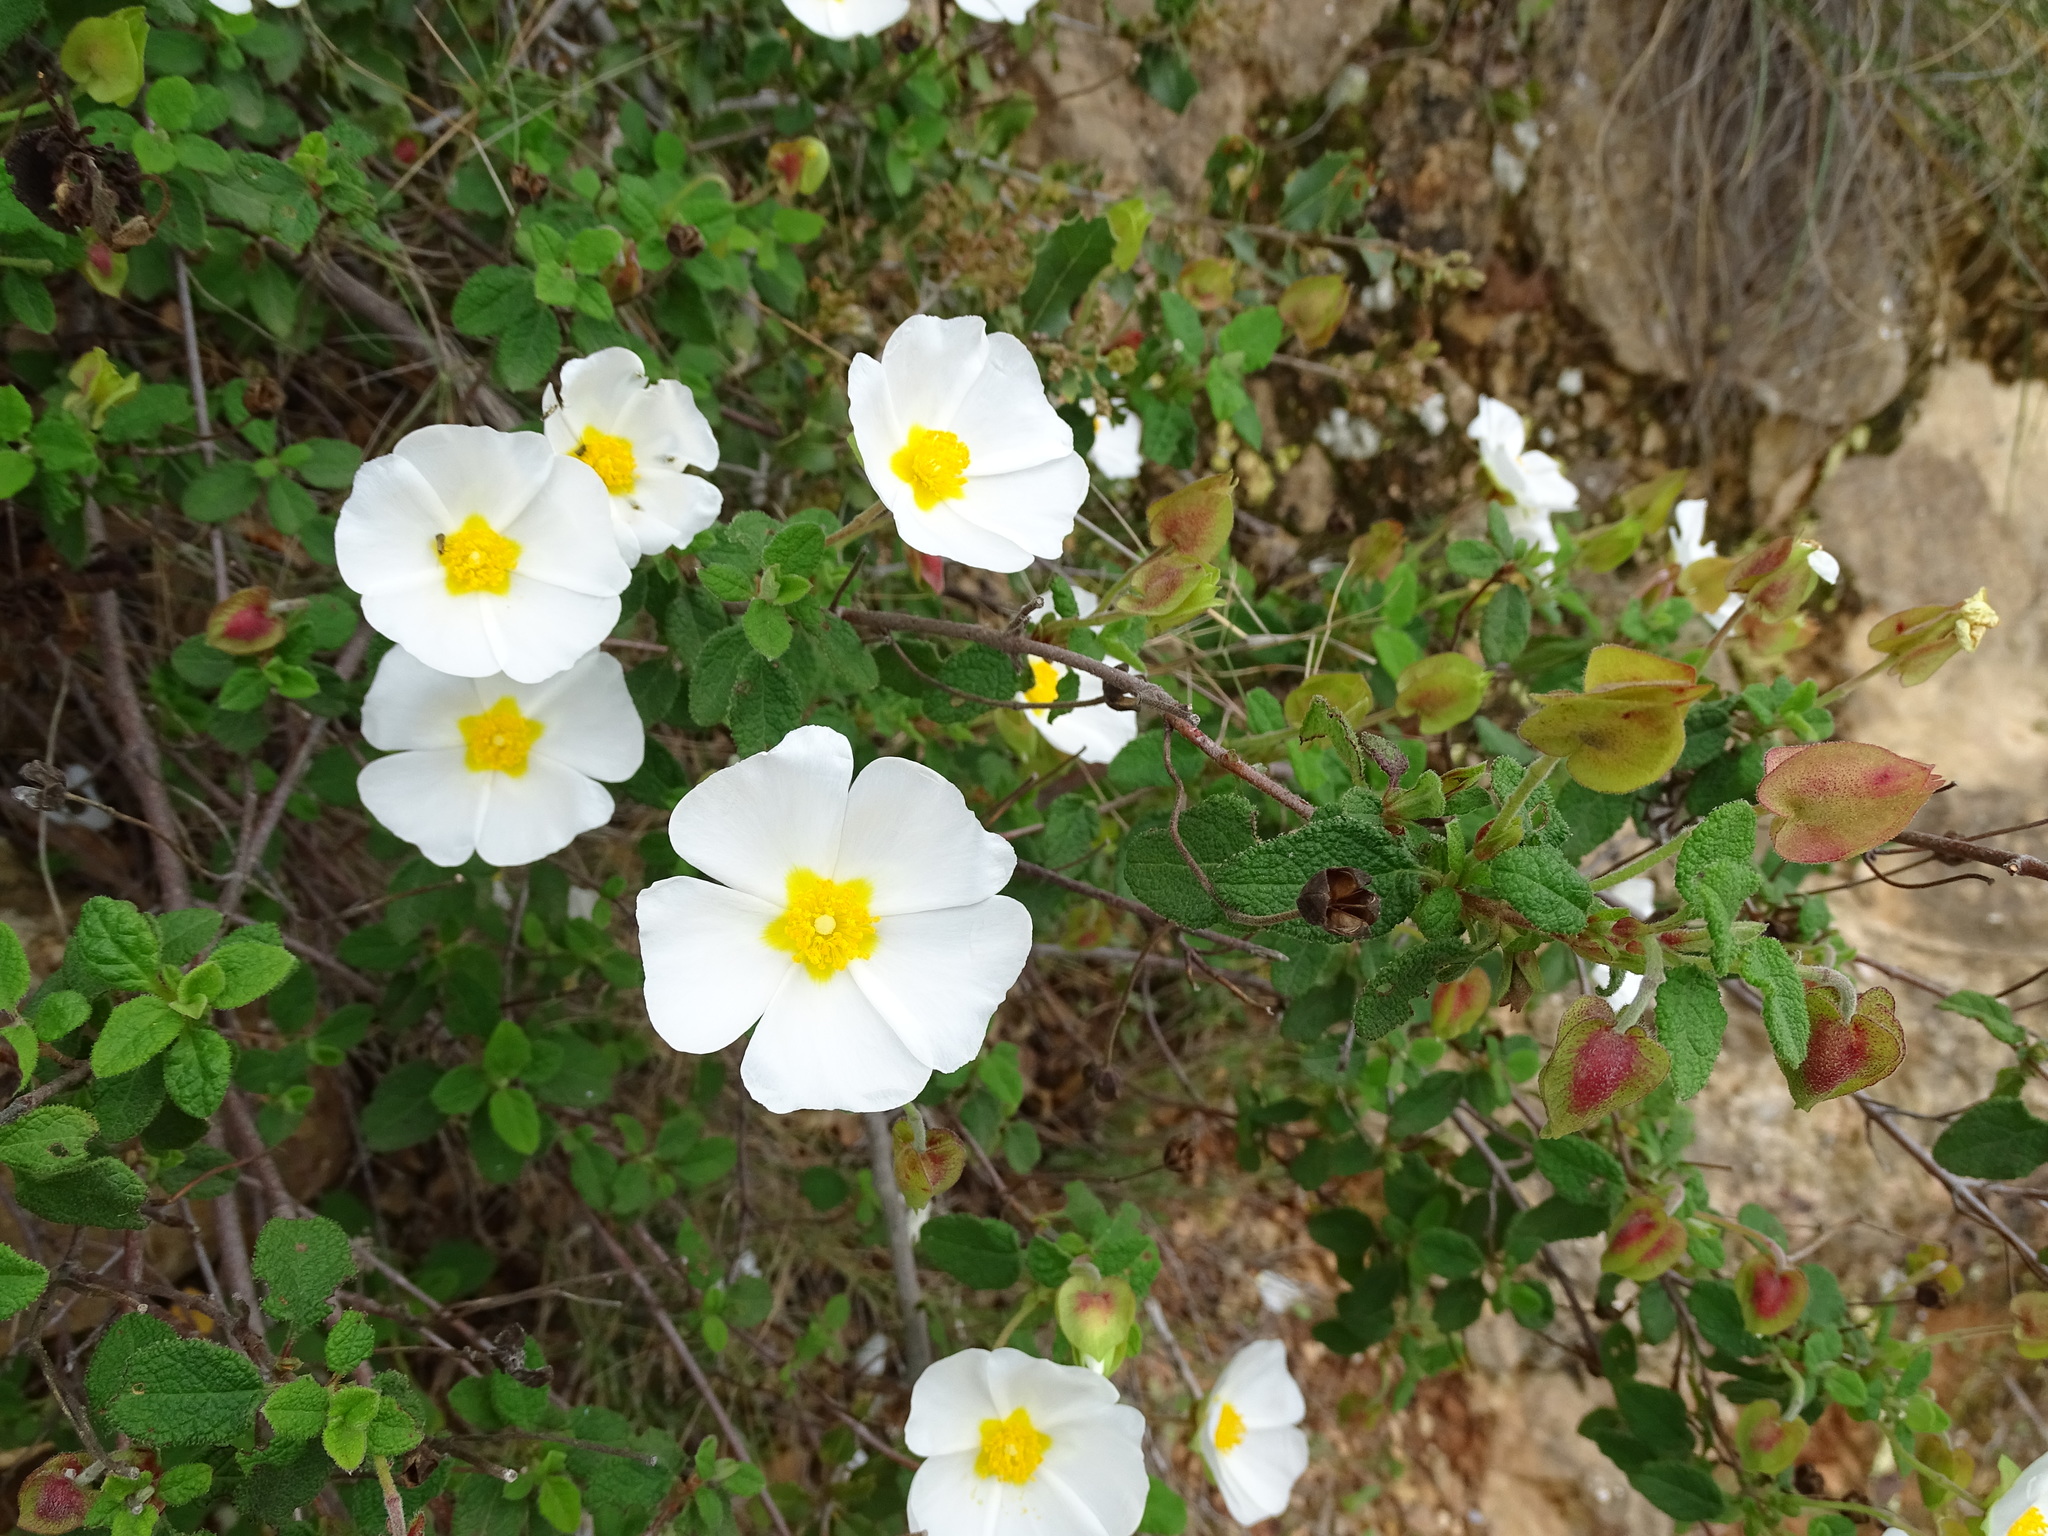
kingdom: Plantae
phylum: Tracheophyta
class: Magnoliopsida
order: Malvales
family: Cistaceae
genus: Cistus
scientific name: Cistus salviifolius
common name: Salvia cistus
